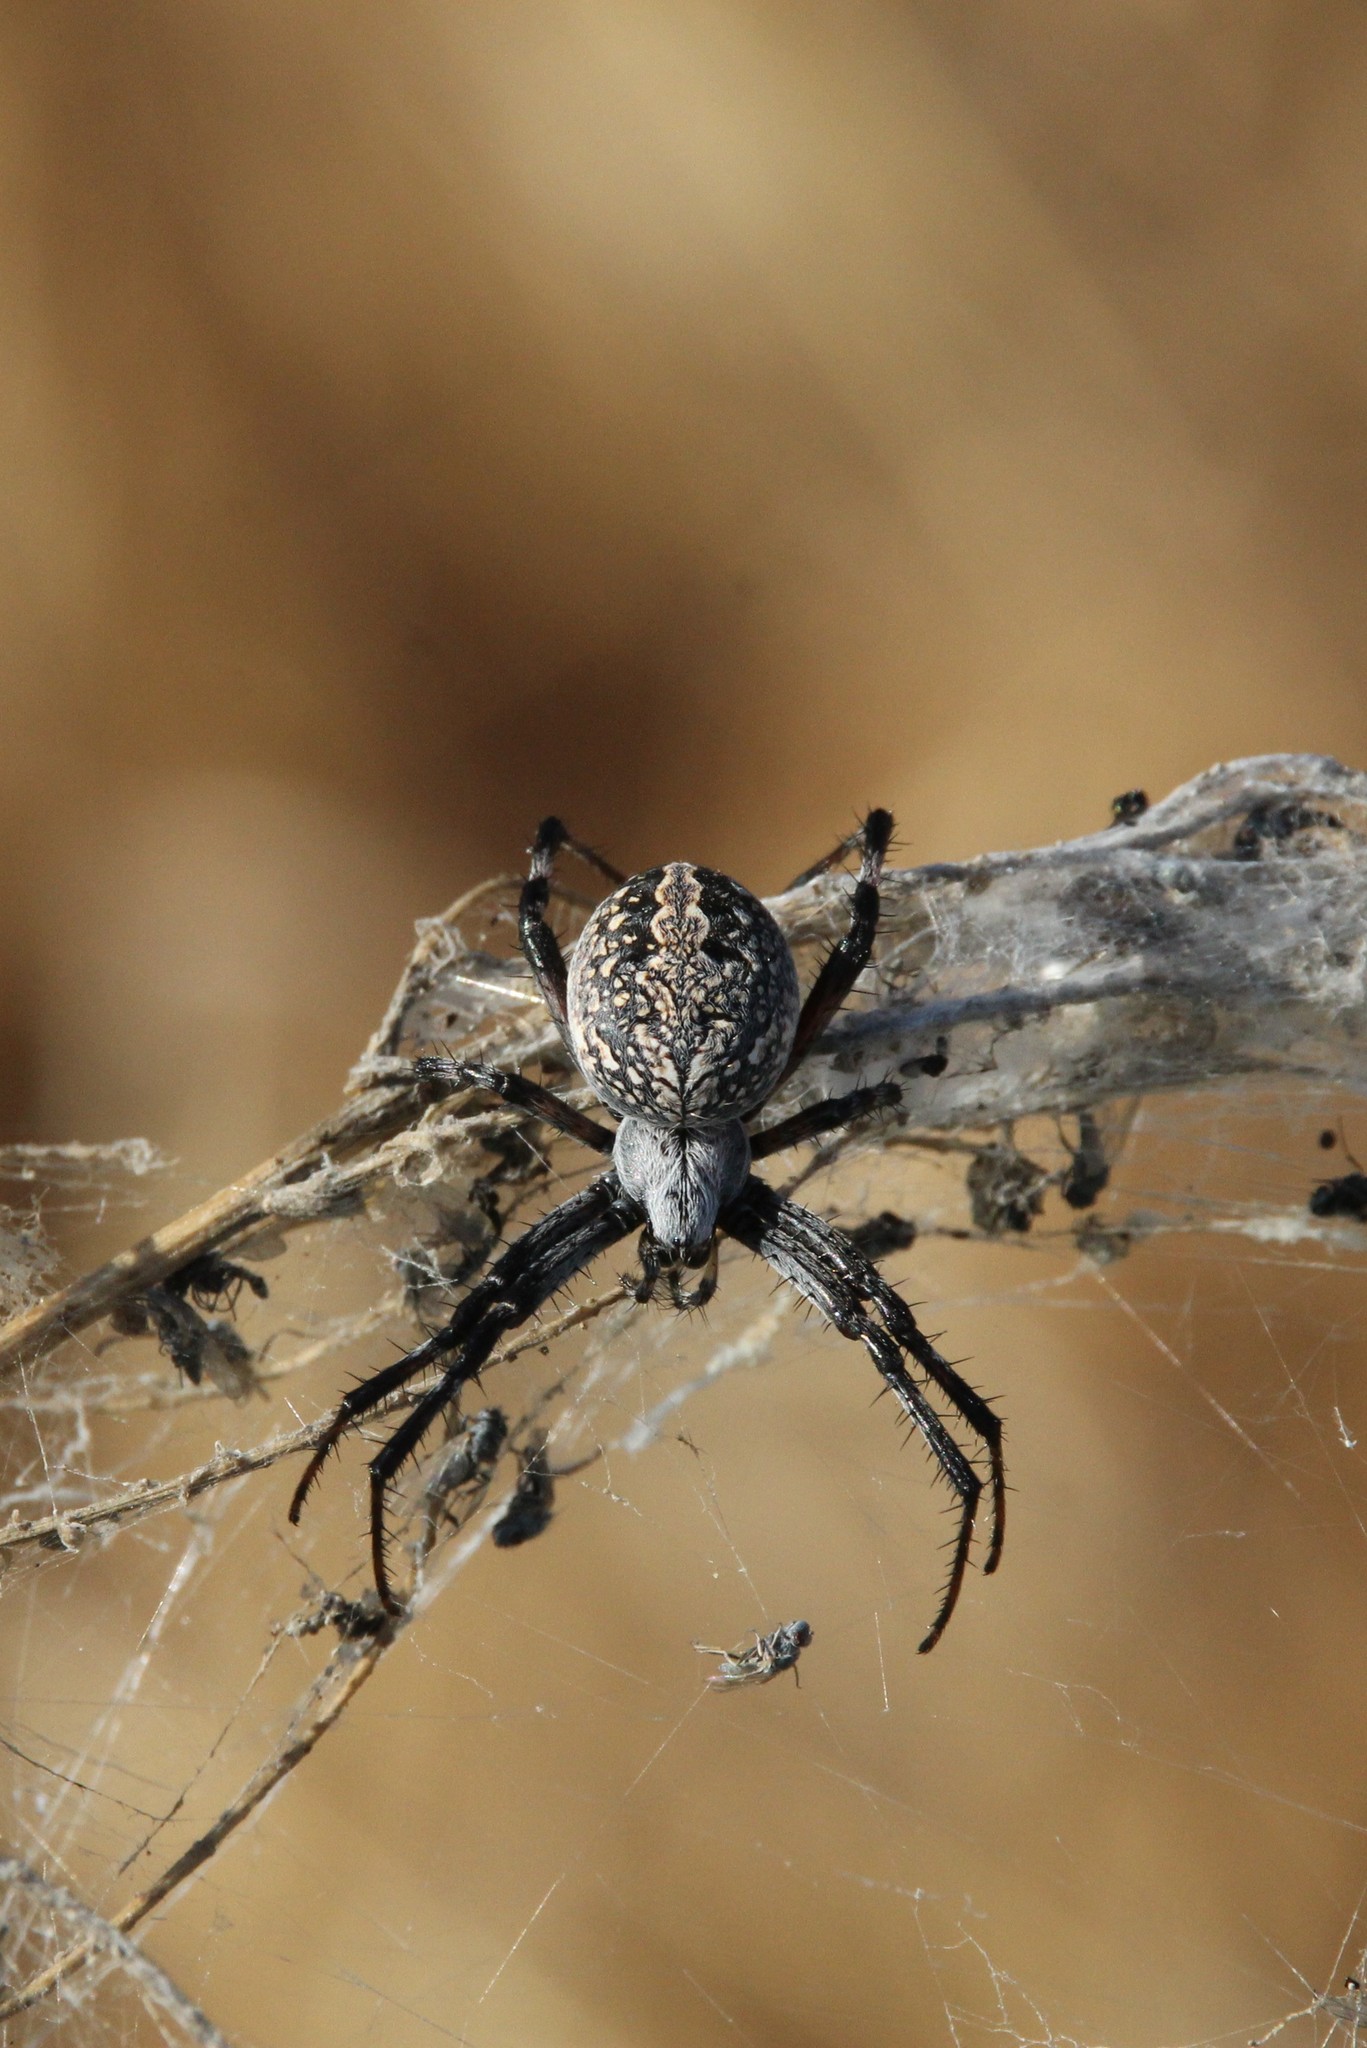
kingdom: Animalia
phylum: Arthropoda
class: Arachnida
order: Araneae
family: Araneidae
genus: Neoscona
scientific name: Neoscona oaxacensis
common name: Orb weavers
